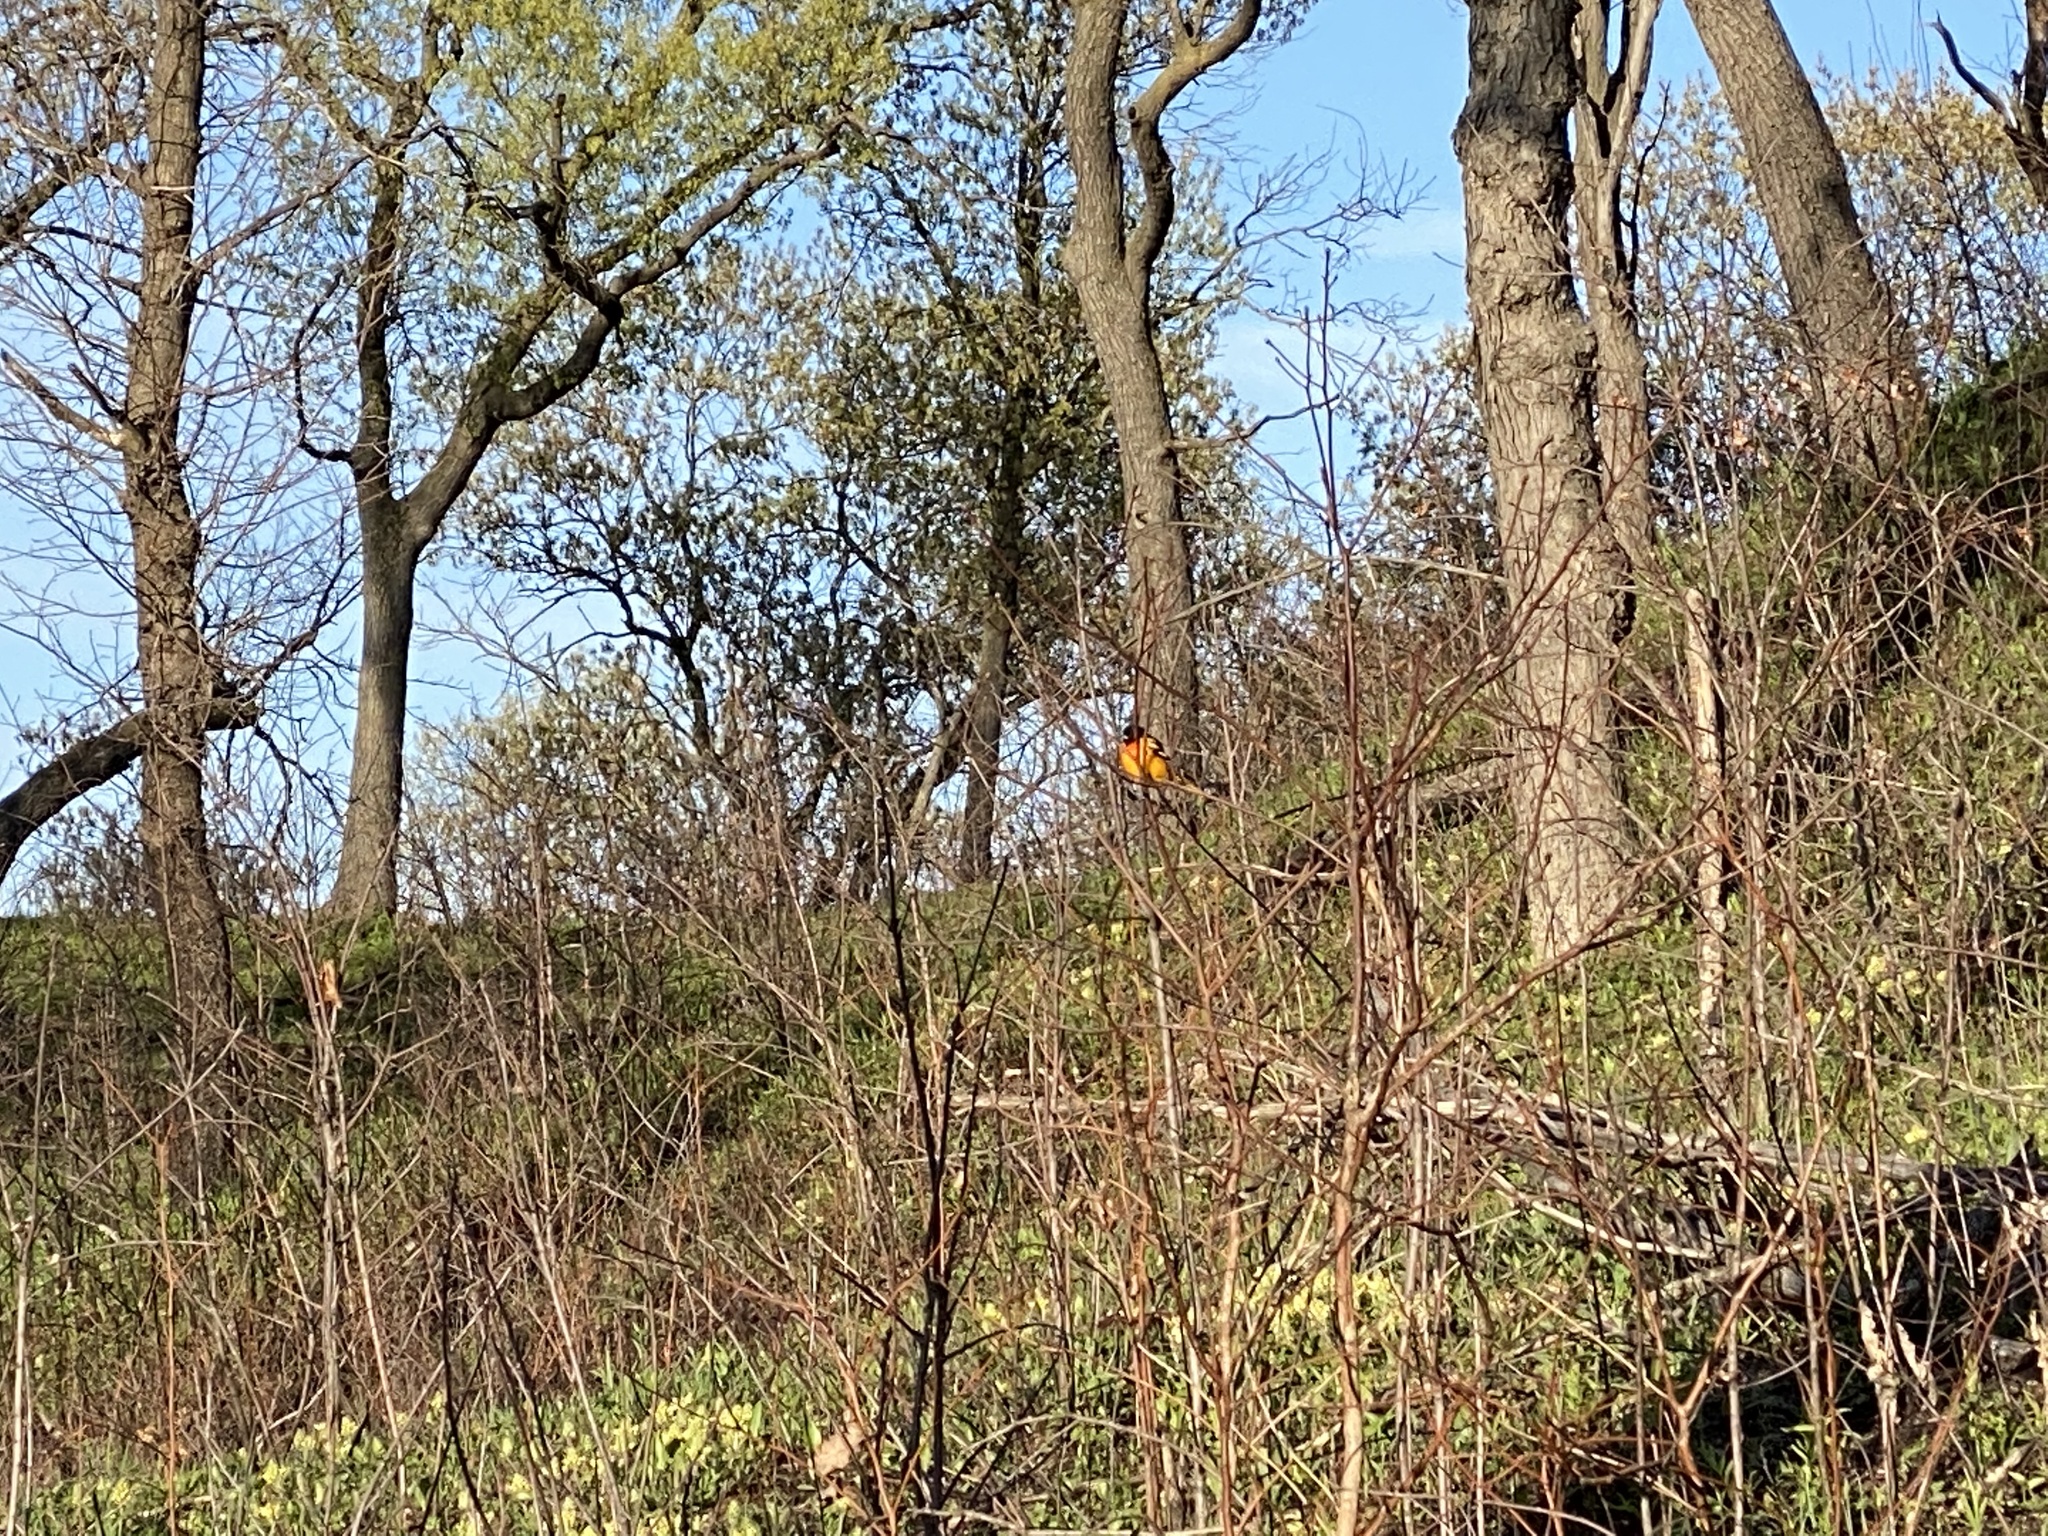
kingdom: Animalia
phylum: Chordata
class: Aves
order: Passeriformes
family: Icteridae
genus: Icterus
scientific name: Icterus galbula
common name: Baltimore oriole
